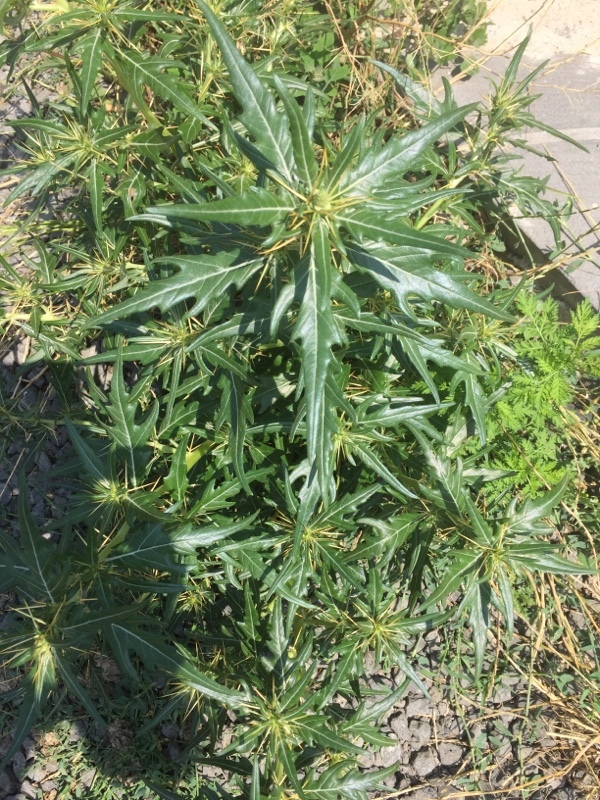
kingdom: Plantae
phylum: Tracheophyta
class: Magnoliopsida
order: Asterales
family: Asteraceae
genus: Xanthium
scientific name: Xanthium spinosum
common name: Spiny cocklebur
